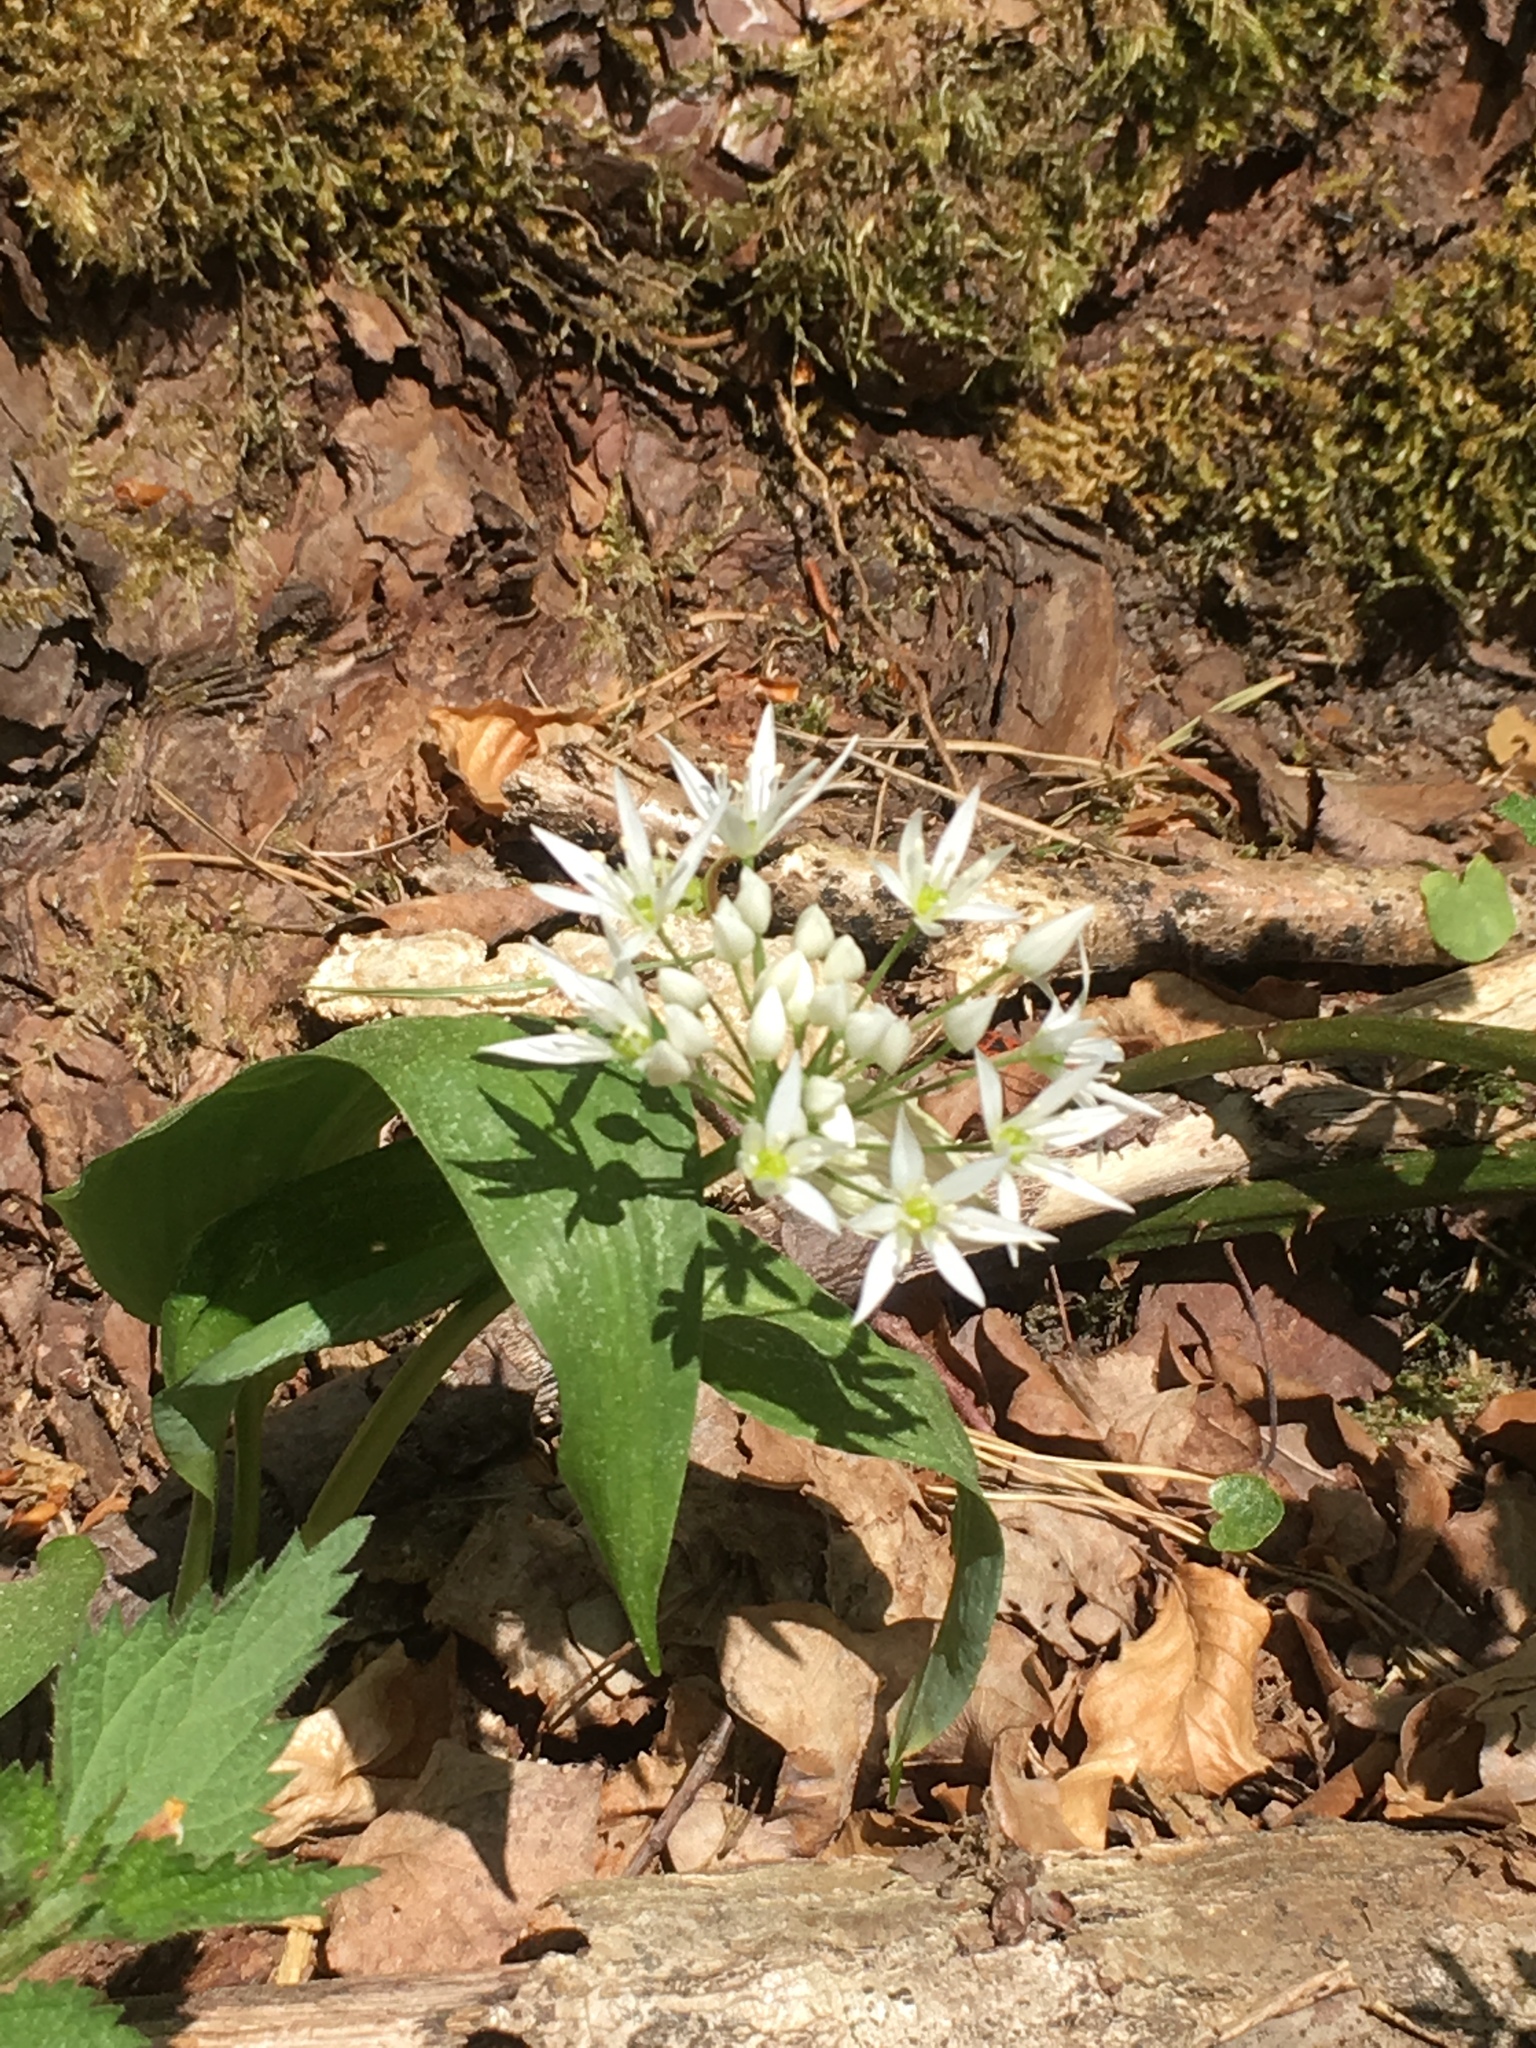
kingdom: Plantae
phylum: Tracheophyta
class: Liliopsida
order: Asparagales
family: Amaryllidaceae
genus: Allium
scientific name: Allium ursinum
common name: Ramsons
